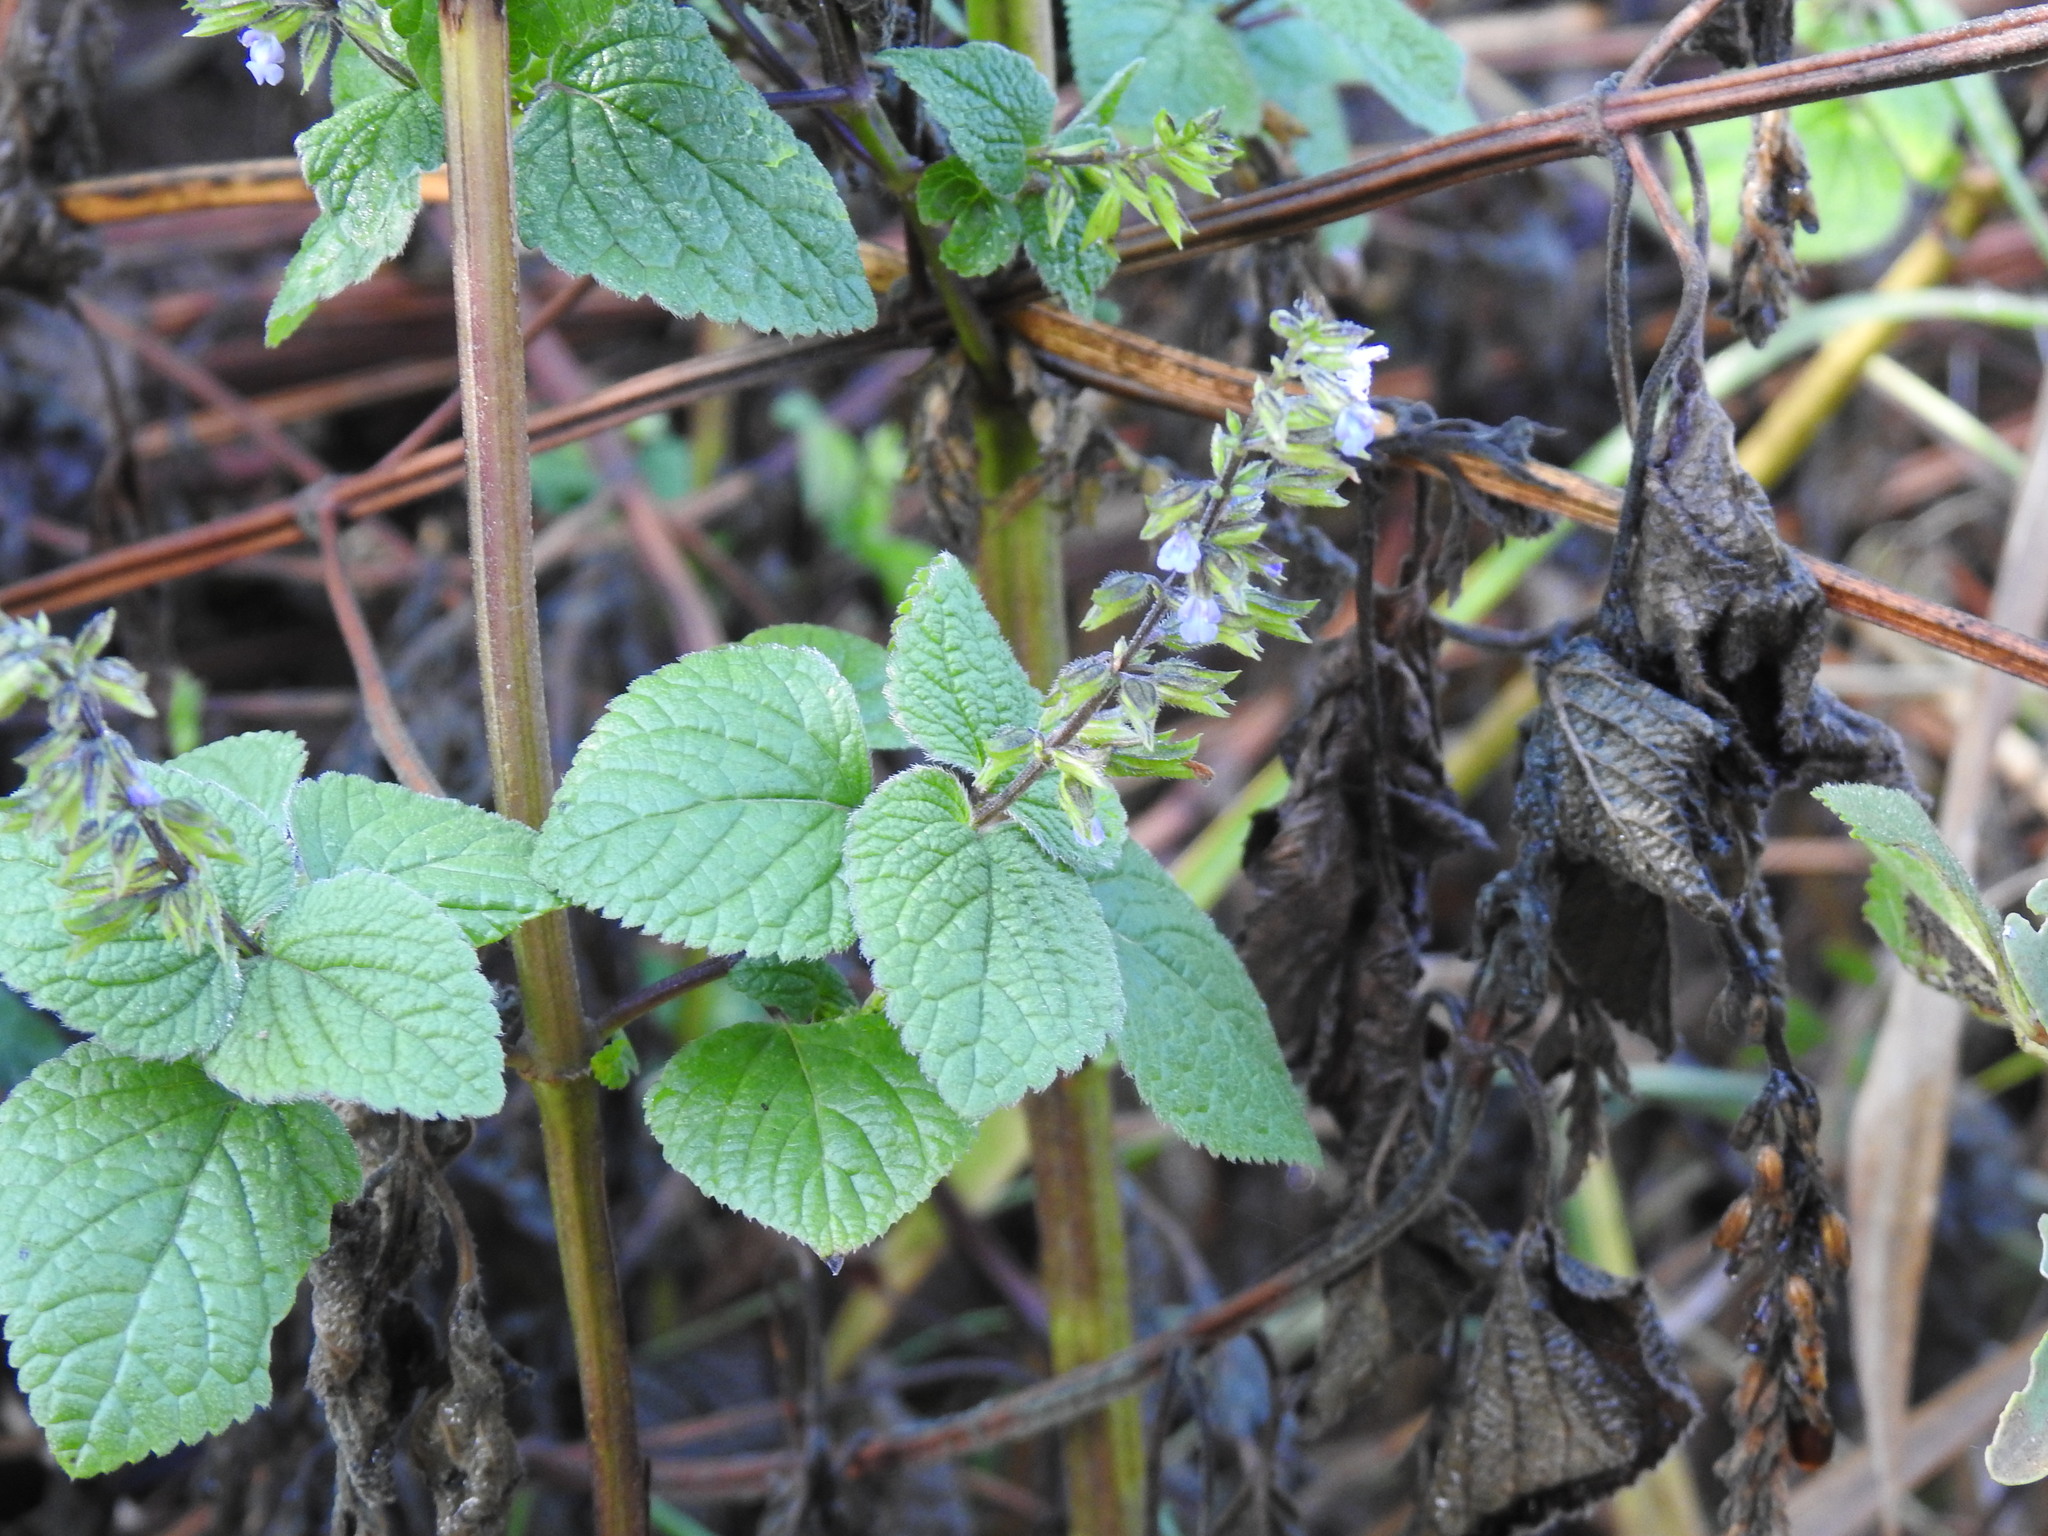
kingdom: Plantae
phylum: Tracheophyta
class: Magnoliopsida
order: Lamiales
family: Lamiaceae
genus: Salvia
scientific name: Salvia tiliifolia
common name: Lindenleaf sage
